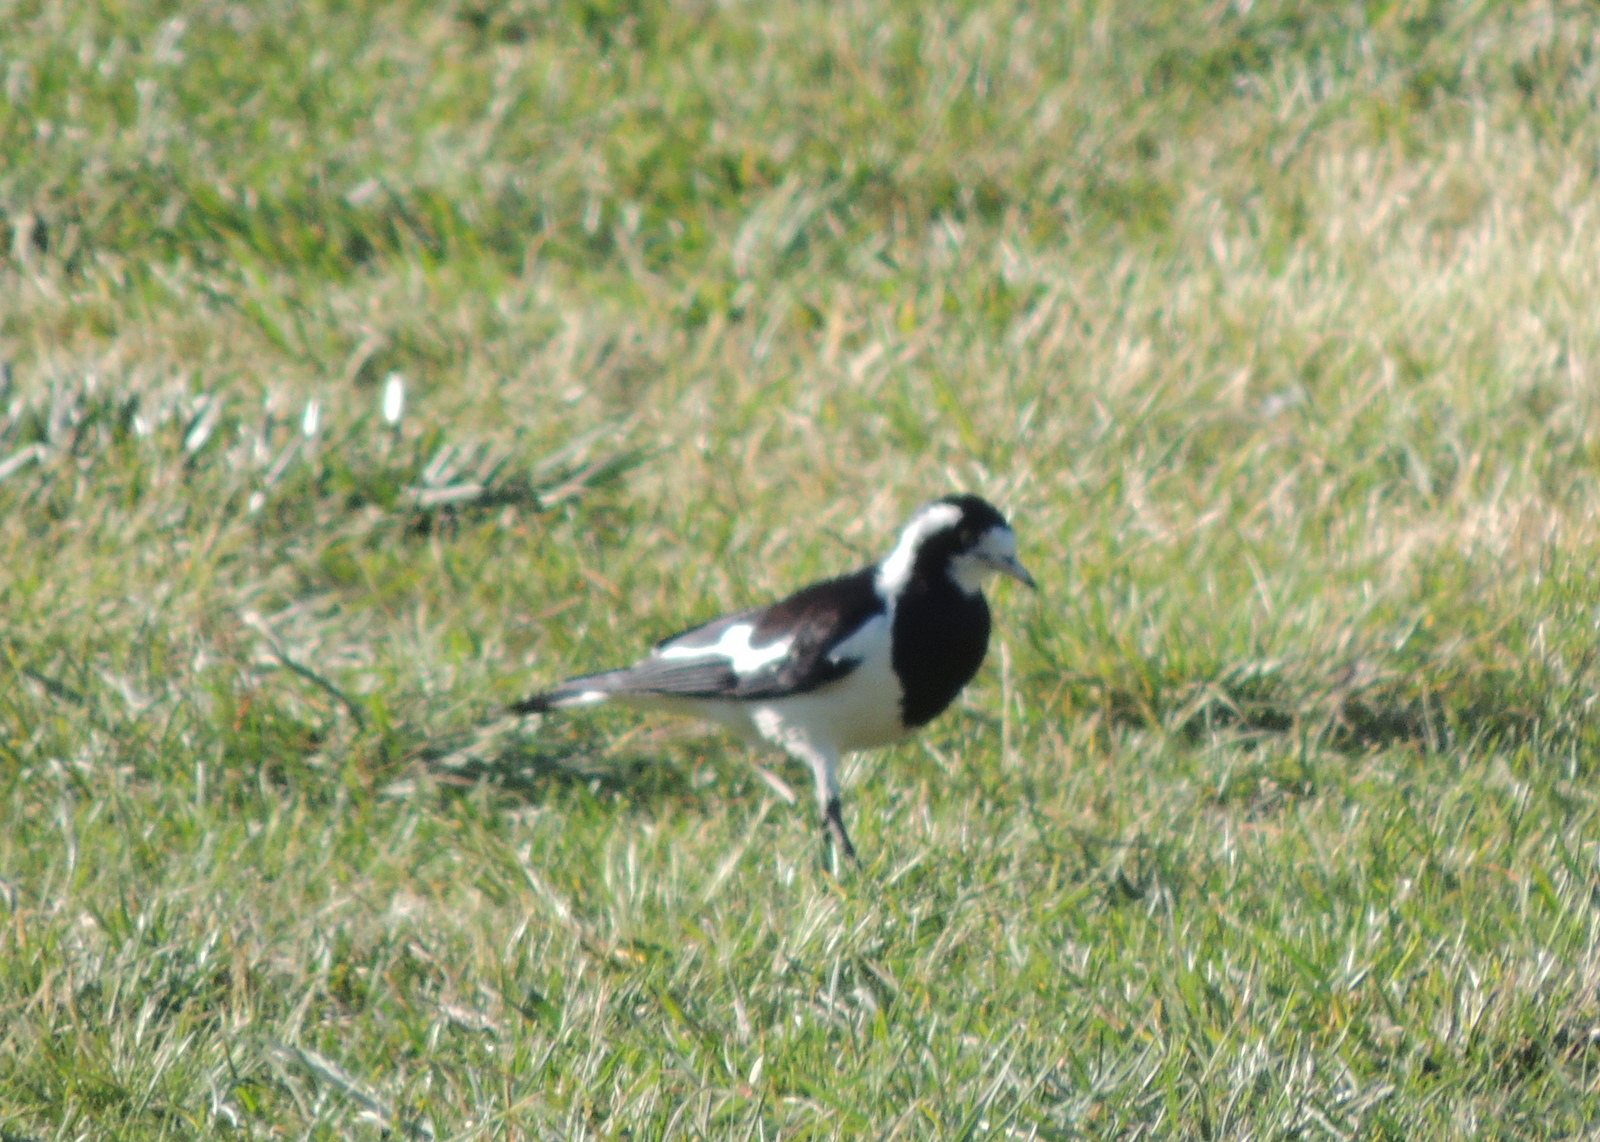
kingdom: Animalia
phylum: Chordata
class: Aves
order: Passeriformes
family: Monarchidae
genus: Grallina
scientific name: Grallina cyanoleuca
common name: Magpie-lark
